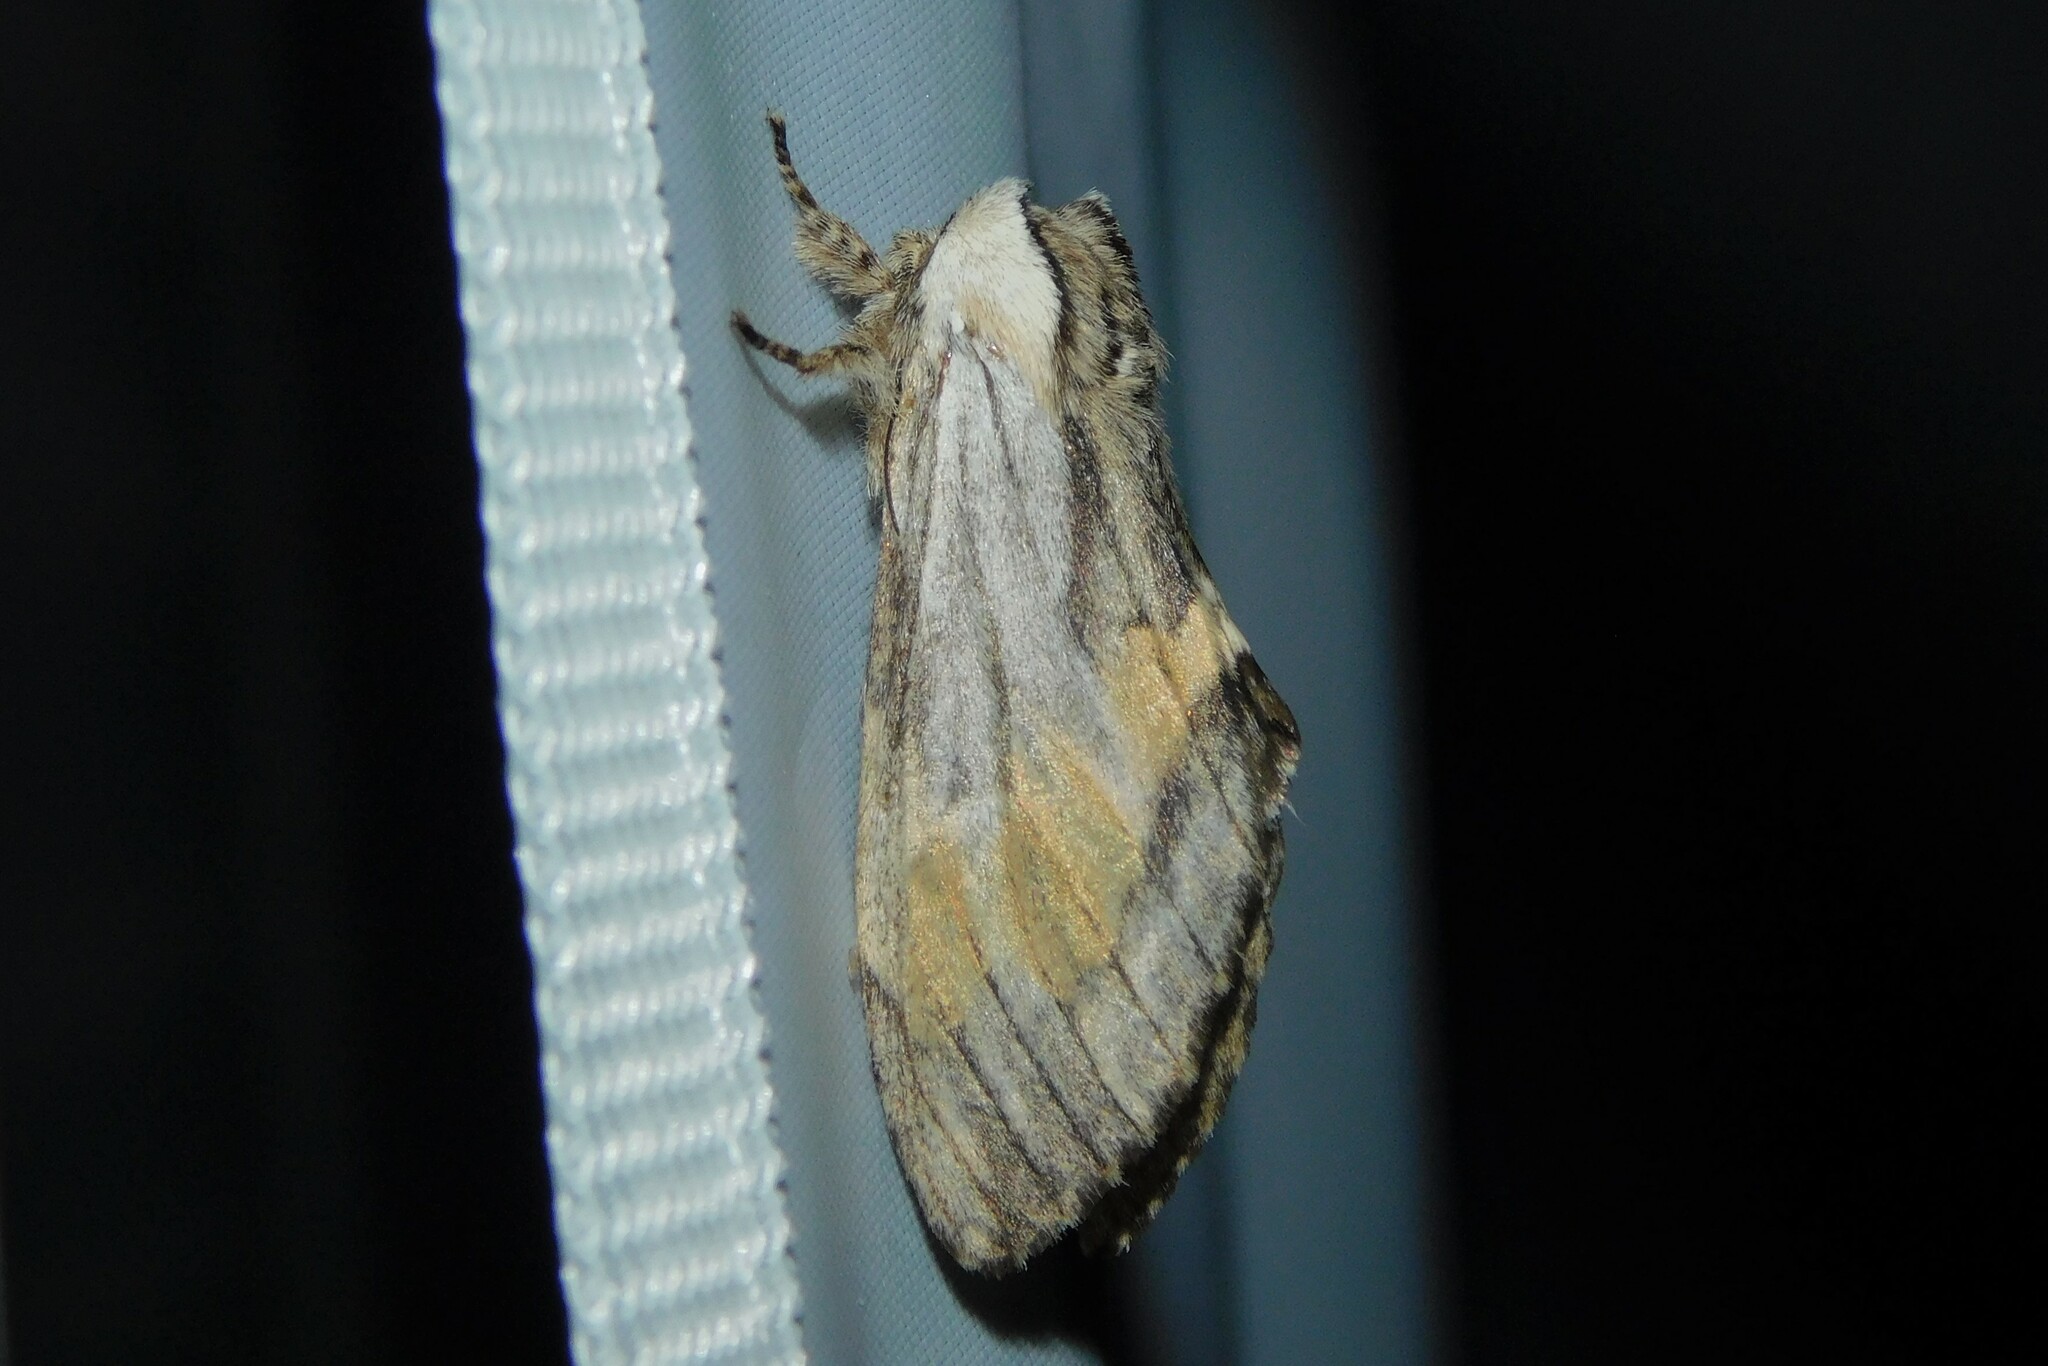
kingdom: Animalia
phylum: Arthropoda
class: Insecta
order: Lepidoptera
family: Notodontidae
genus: Harpyia
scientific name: Harpyia milhauseri
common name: Tawny prominent
